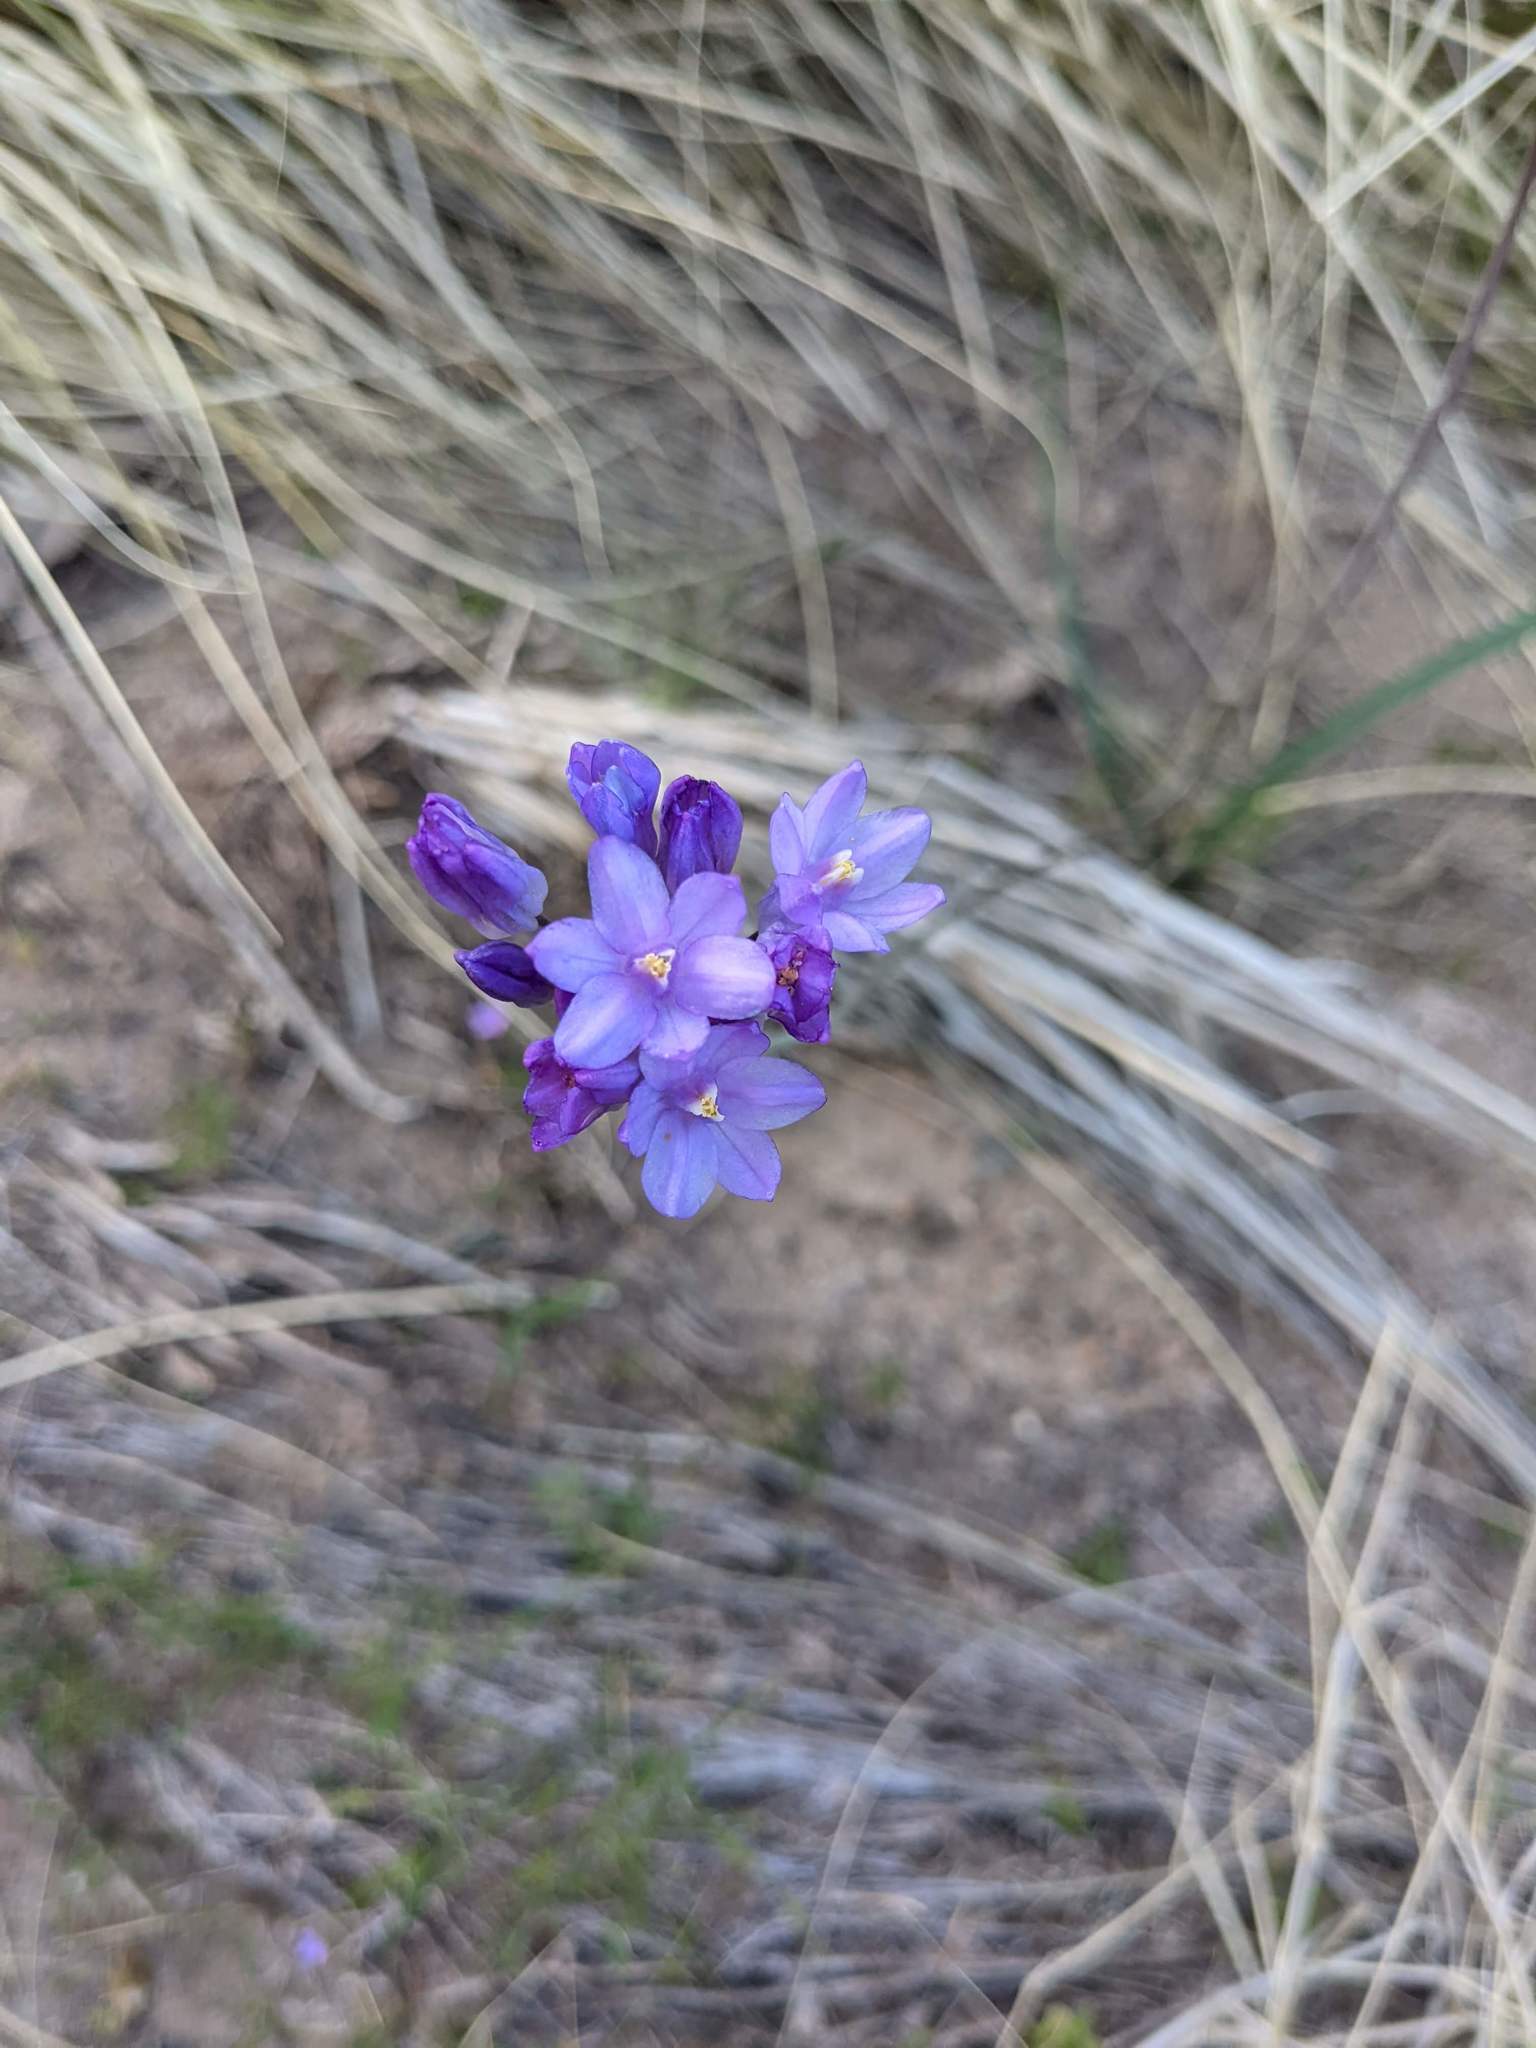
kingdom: Plantae
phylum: Tracheophyta
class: Liliopsida
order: Asparagales
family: Asparagaceae
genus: Dipterostemon
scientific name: Dipterostemon capitatus
